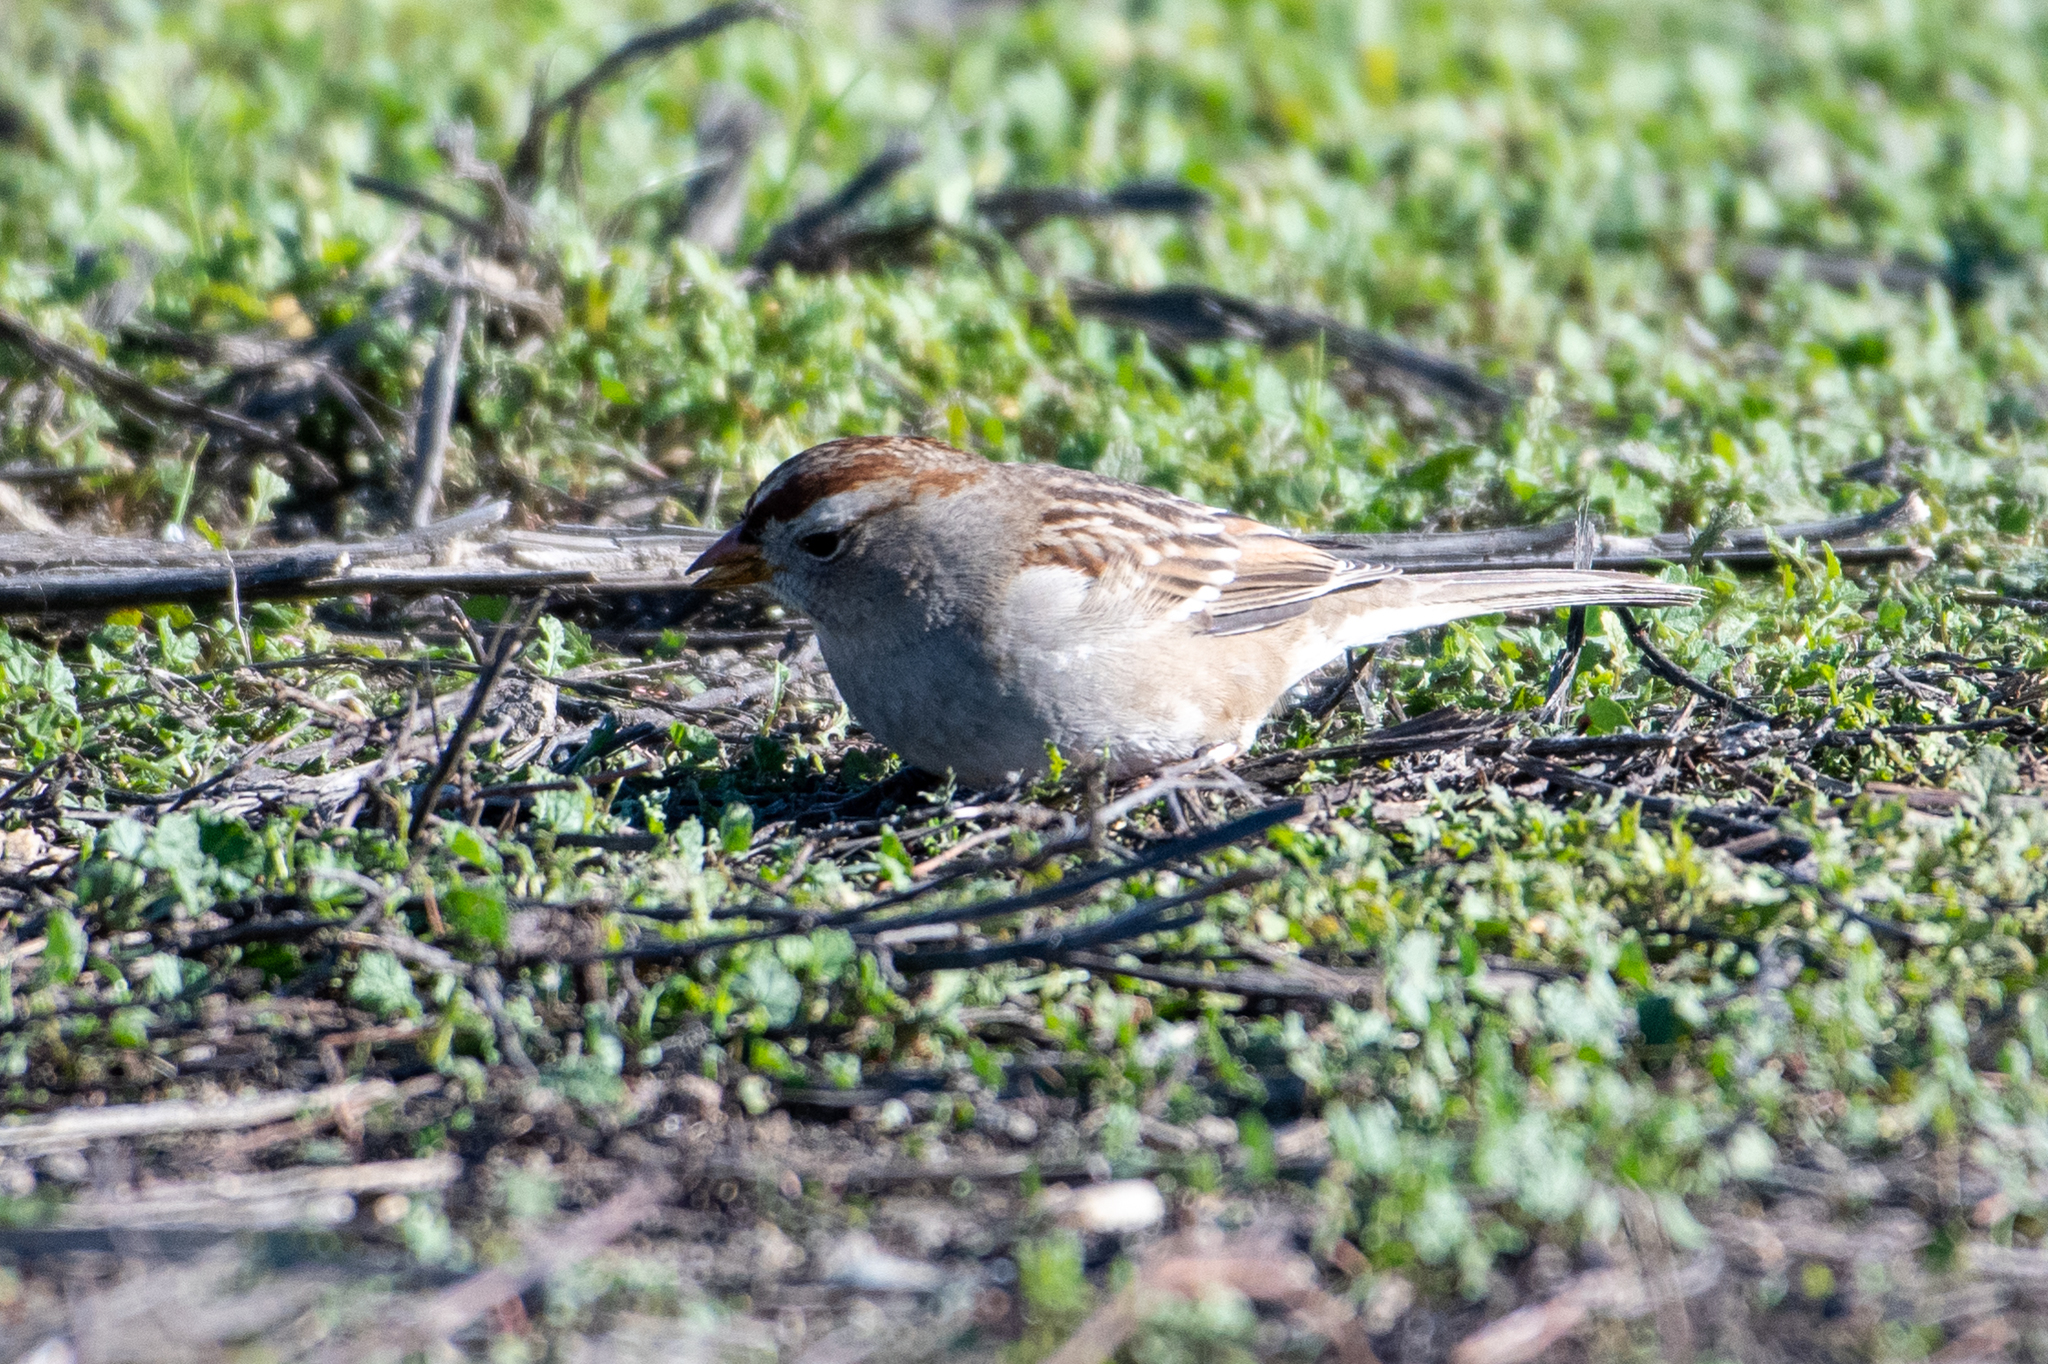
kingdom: Animalia
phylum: Chordata
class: Aves
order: Passeriformes
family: Passerellidae
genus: Zonotrichia
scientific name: Zonotrichia leucophrys
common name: White-crowned sparrow
